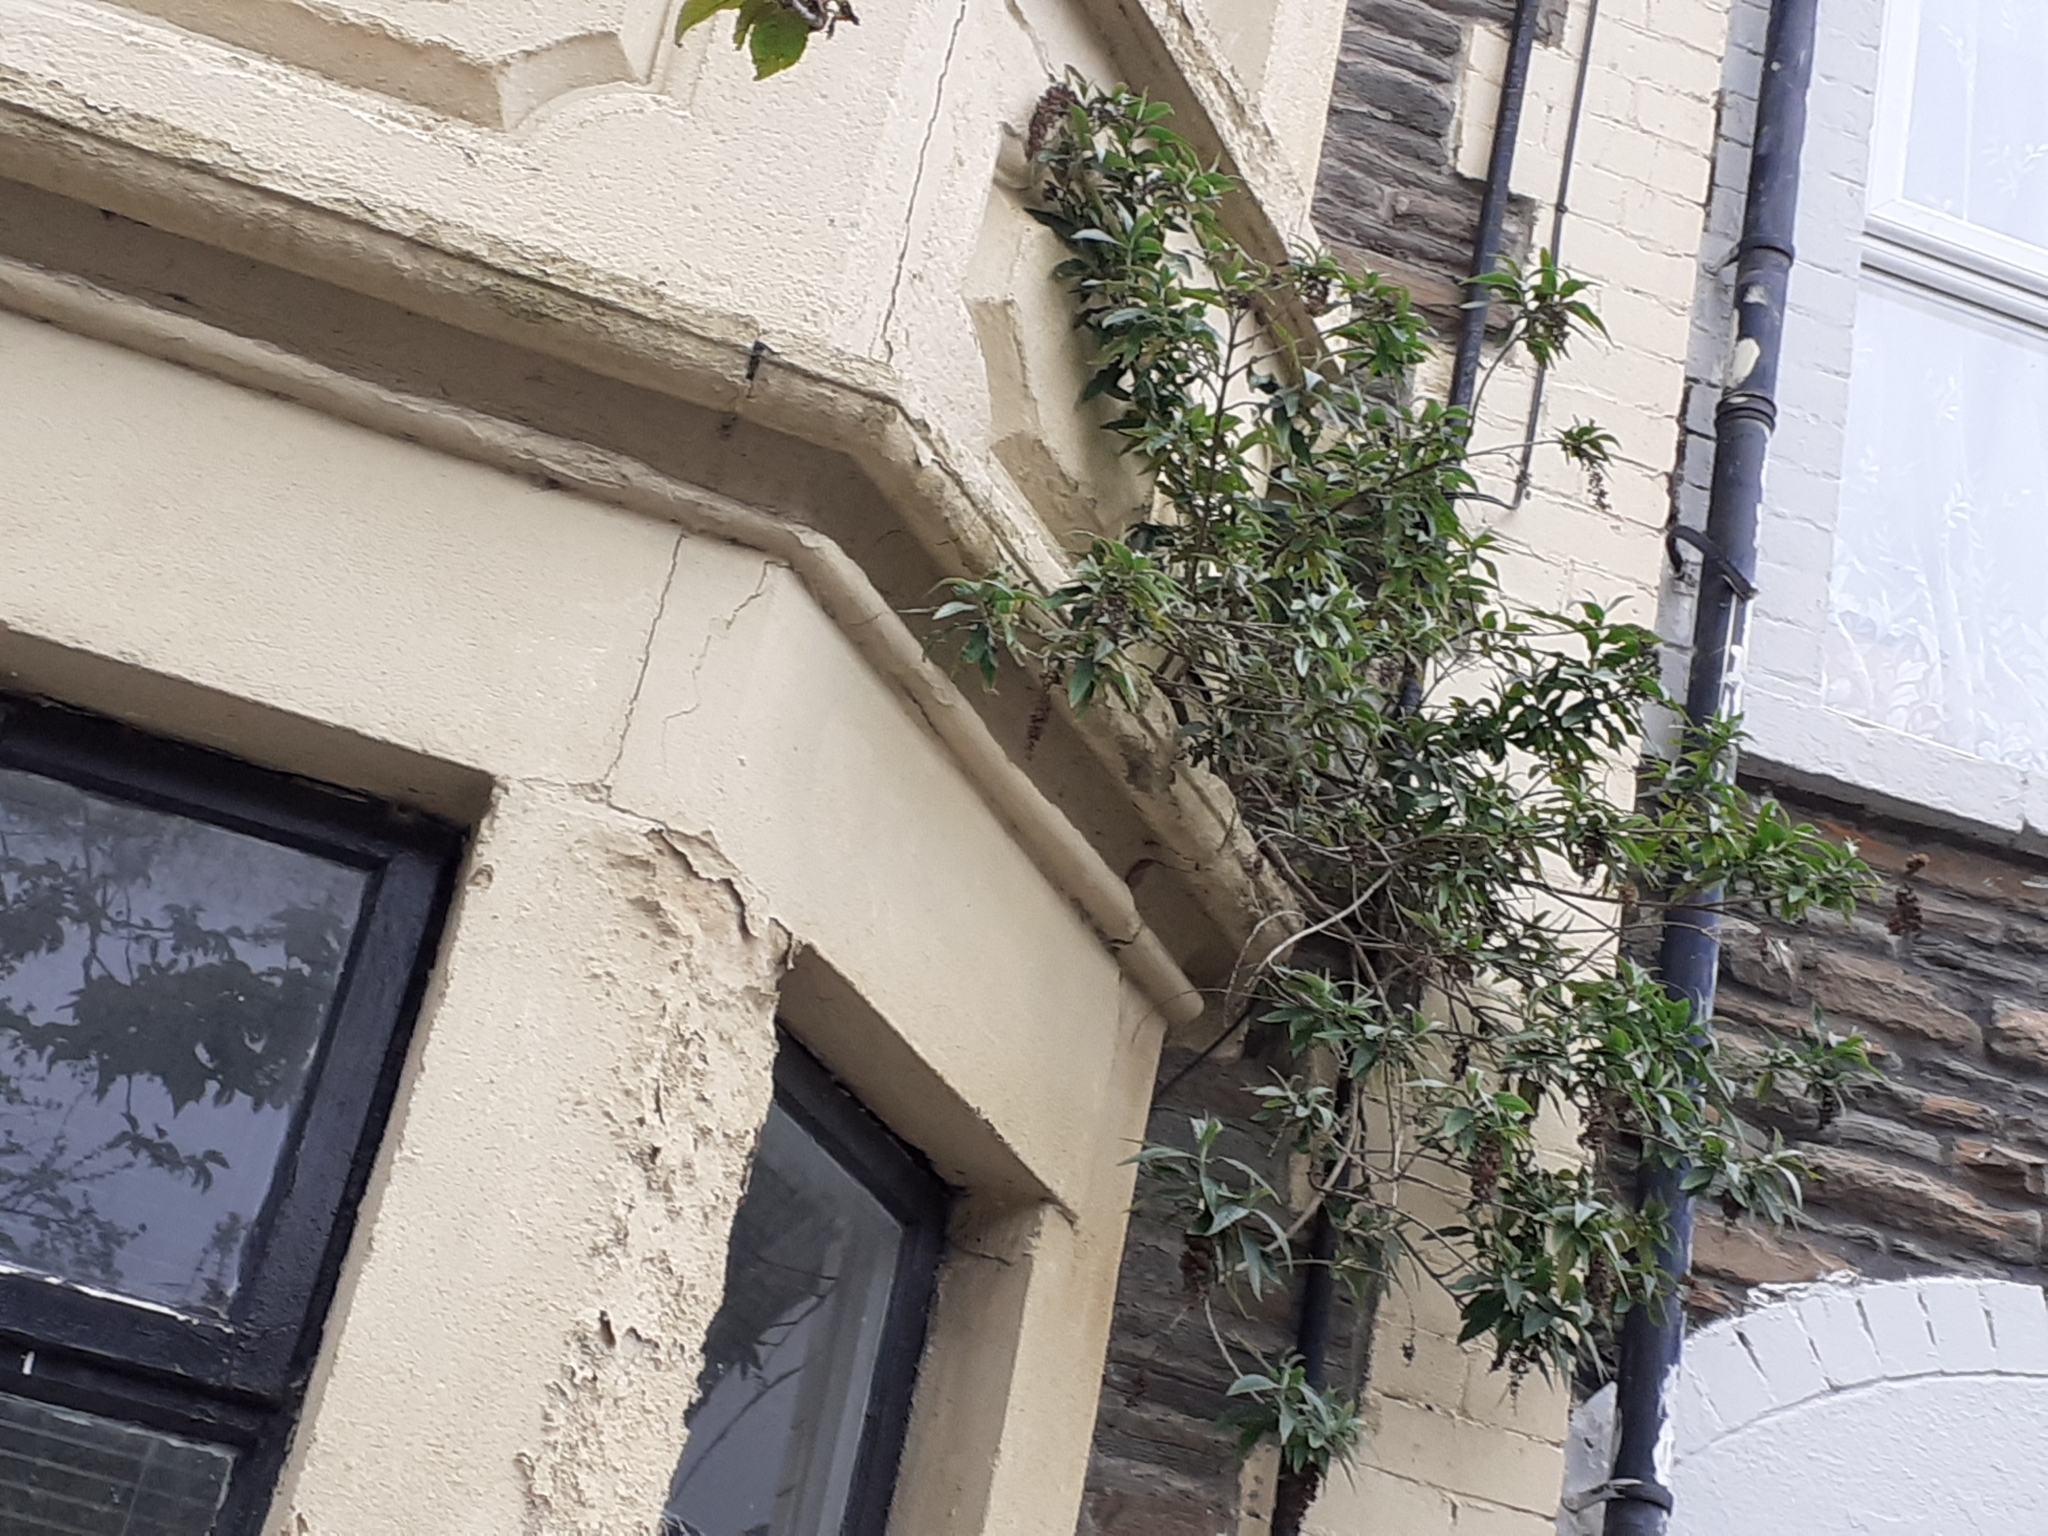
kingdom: Plantae
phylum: Tracheophyta
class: Magnoliopsida
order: Lamiales
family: Scrophulariaceae
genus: Buddleja
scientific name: Buddleja davidii
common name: Butterfly-bush
